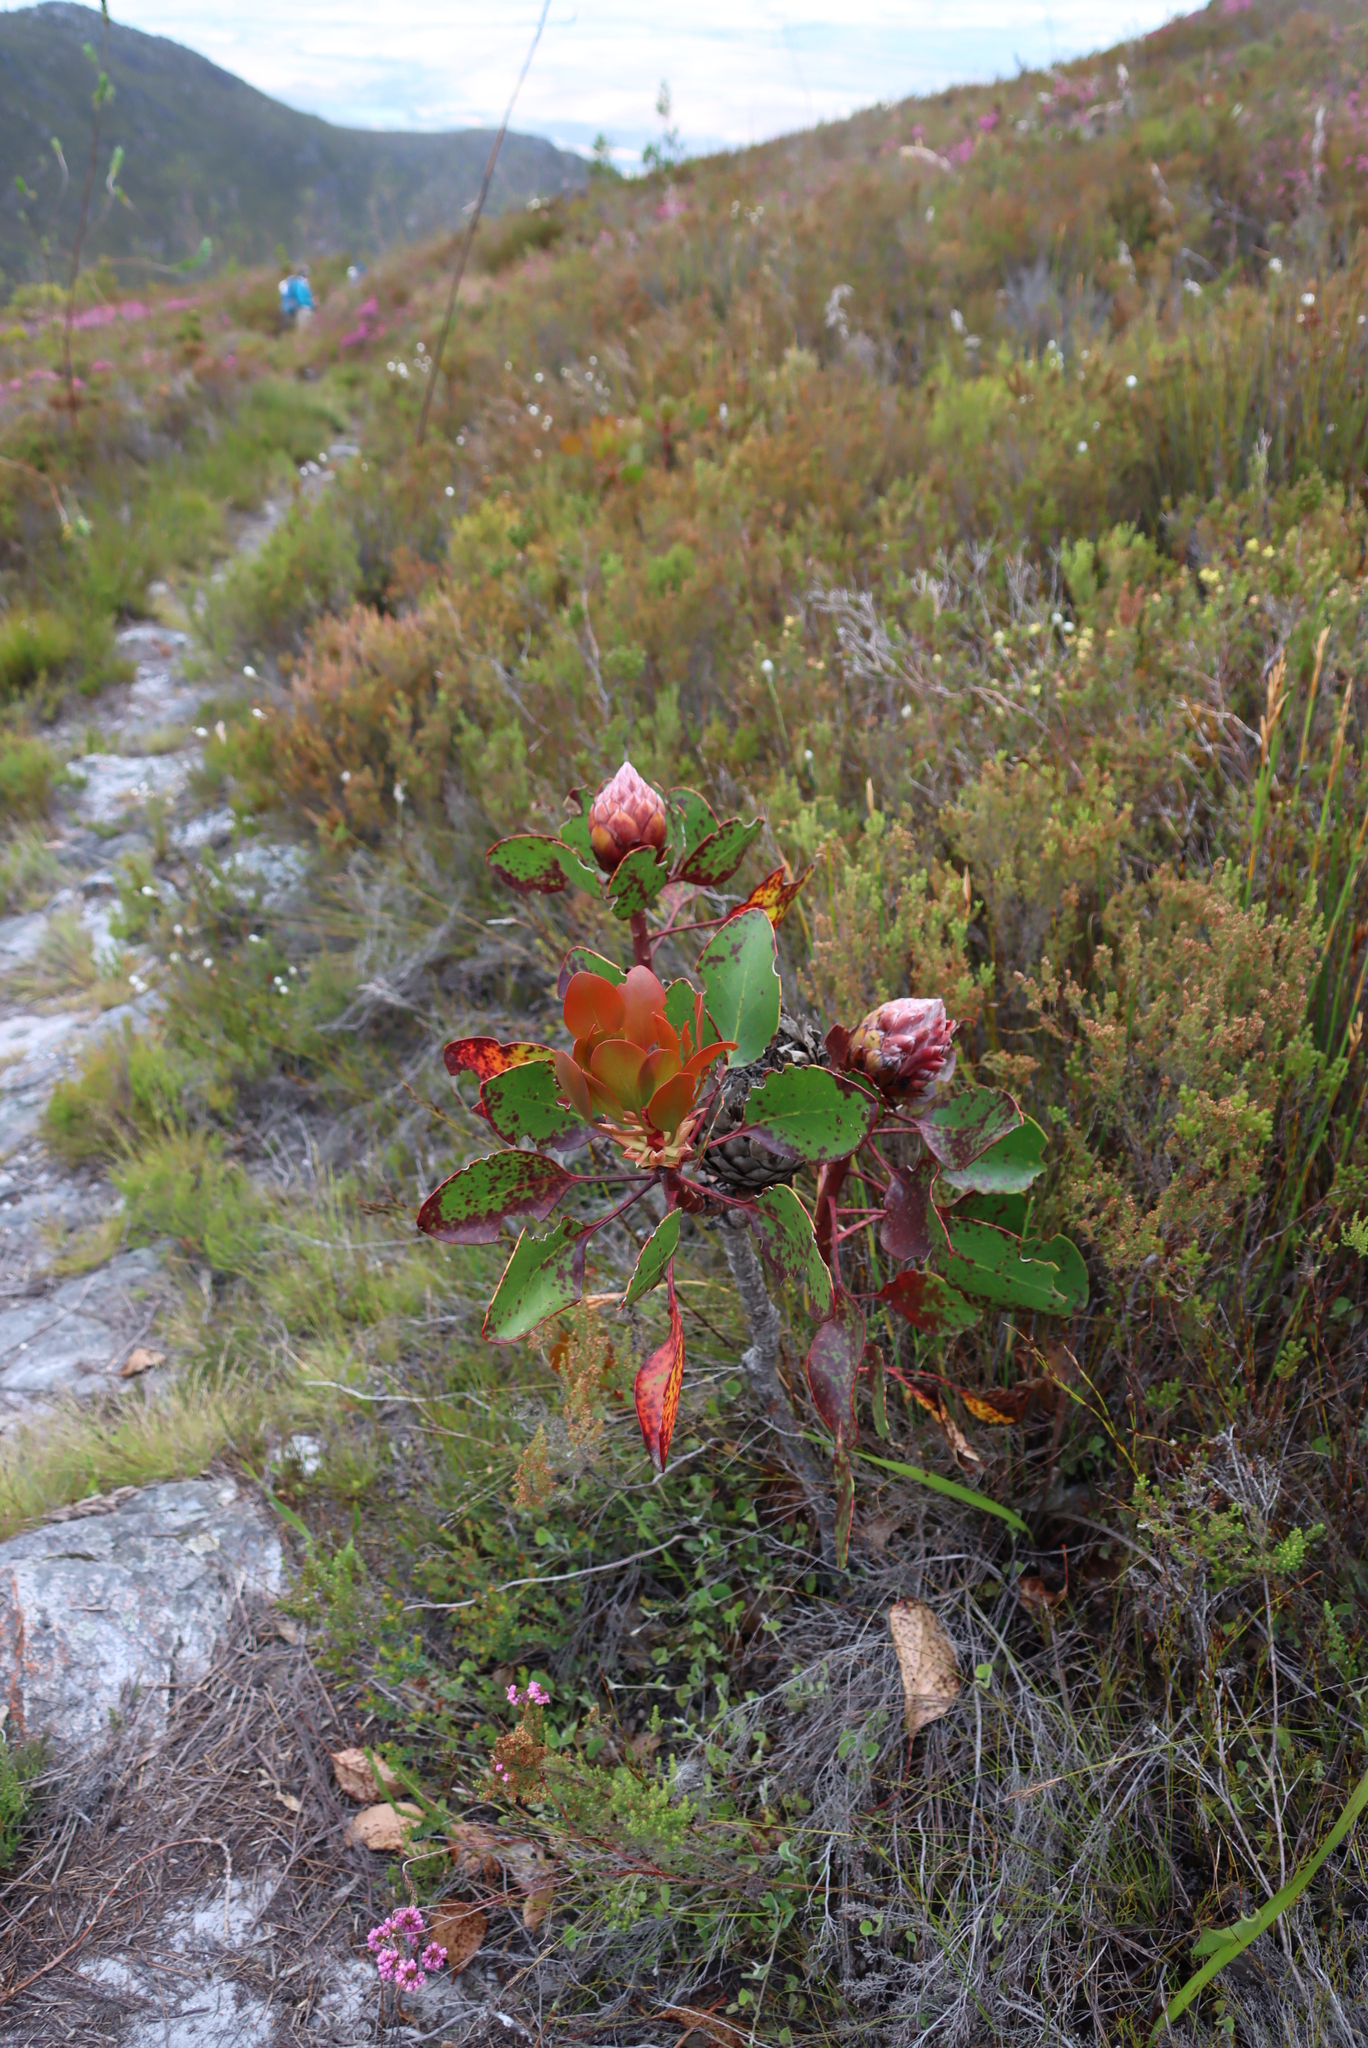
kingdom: Plantae
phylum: Tracheophyta
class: Magnoliopsida
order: Proteales
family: Proteaceae
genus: Protea
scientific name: Protea cynaroides
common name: King protea
